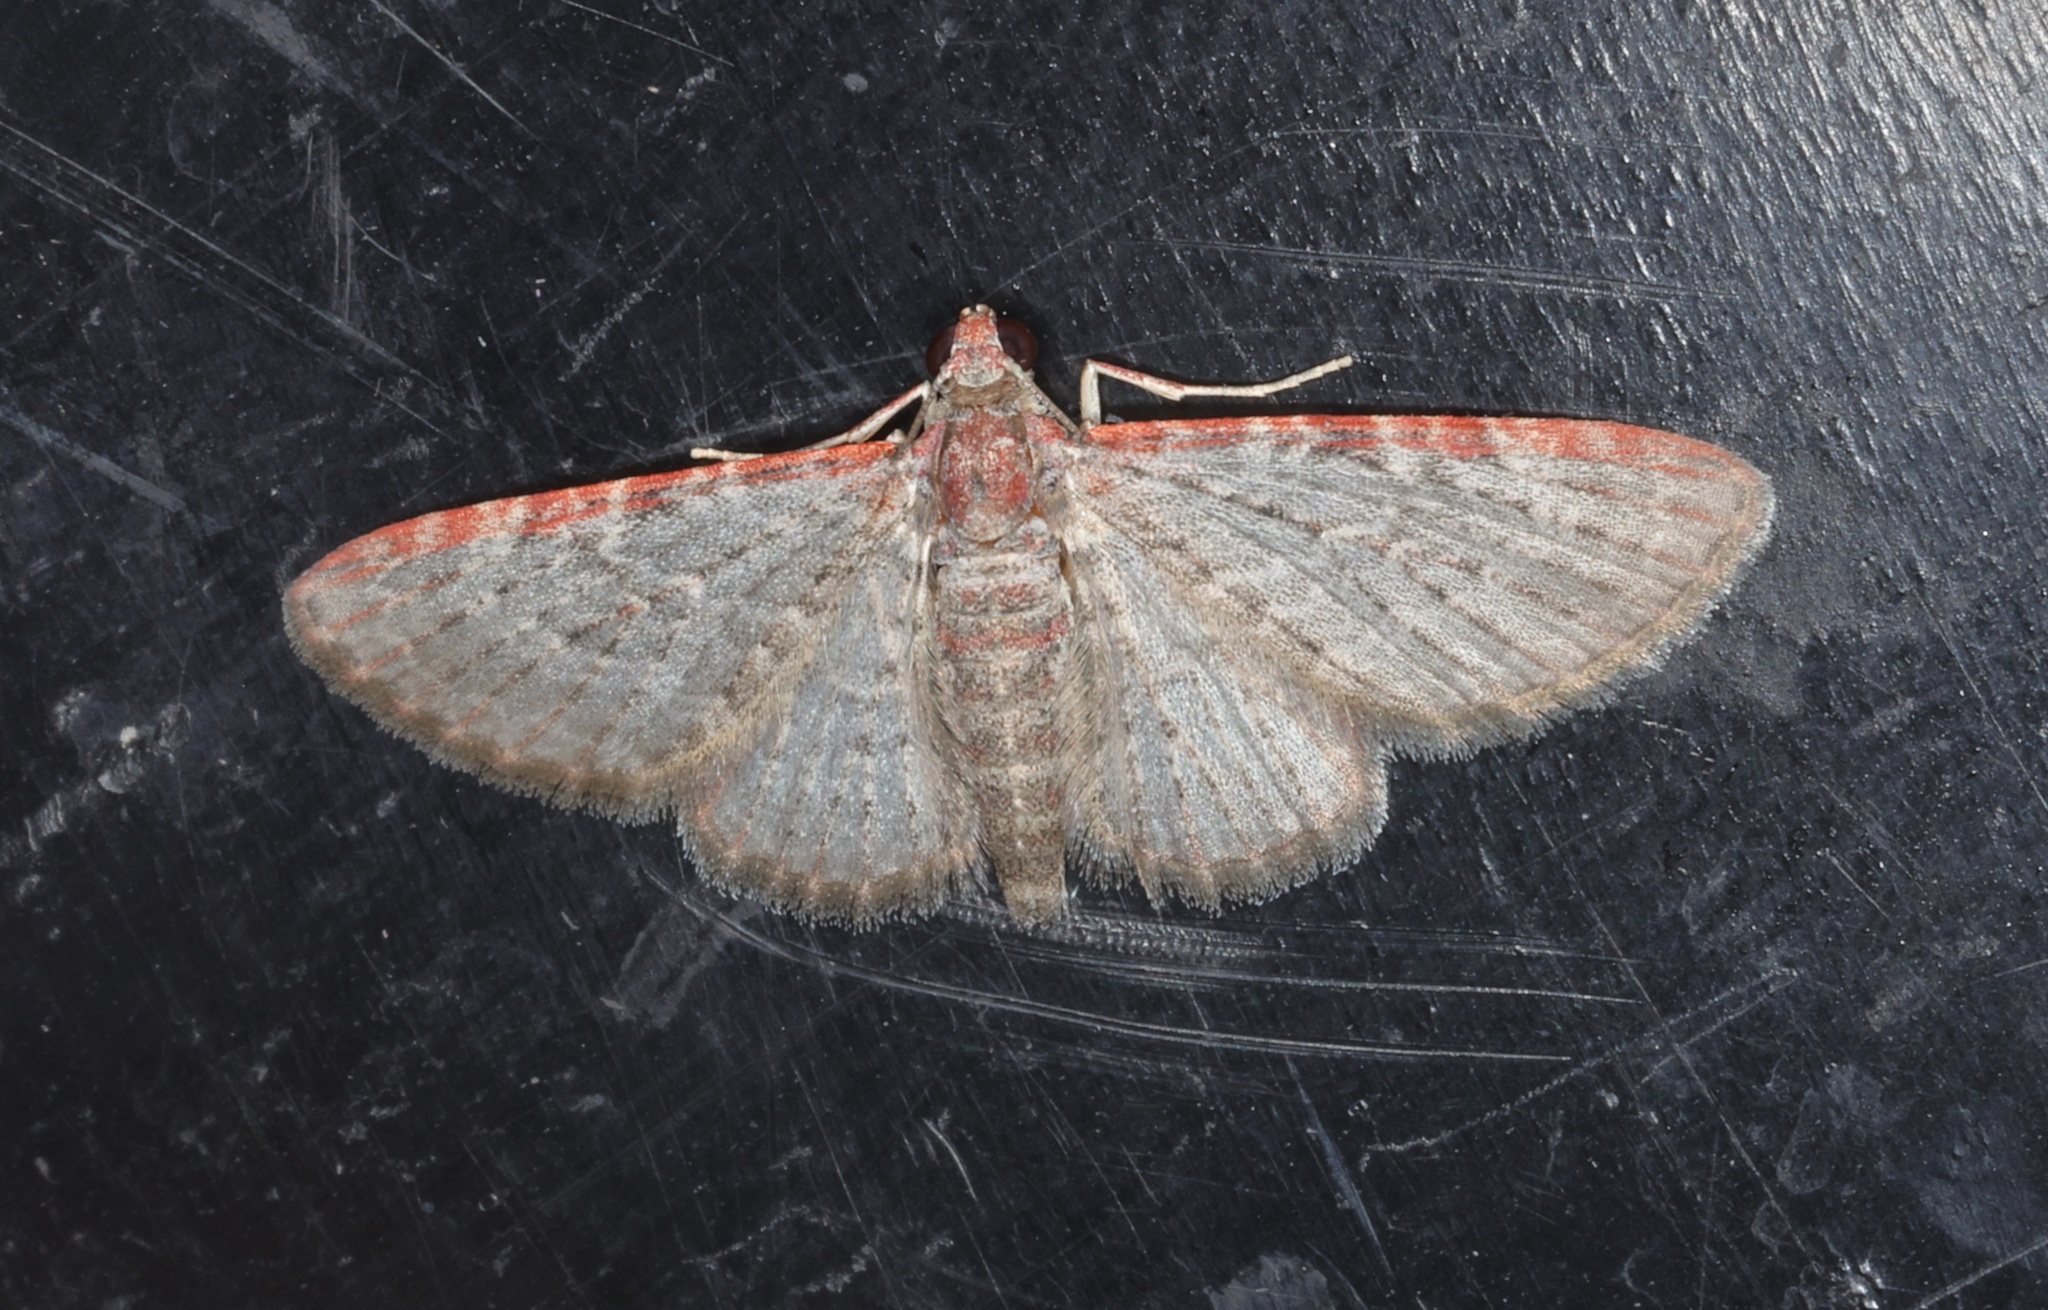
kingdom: Animalia
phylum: Arthropoda
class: Insecta
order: Lepidoptera
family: Geometridae
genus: Sigilliclystis
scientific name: Sigilliclystis
